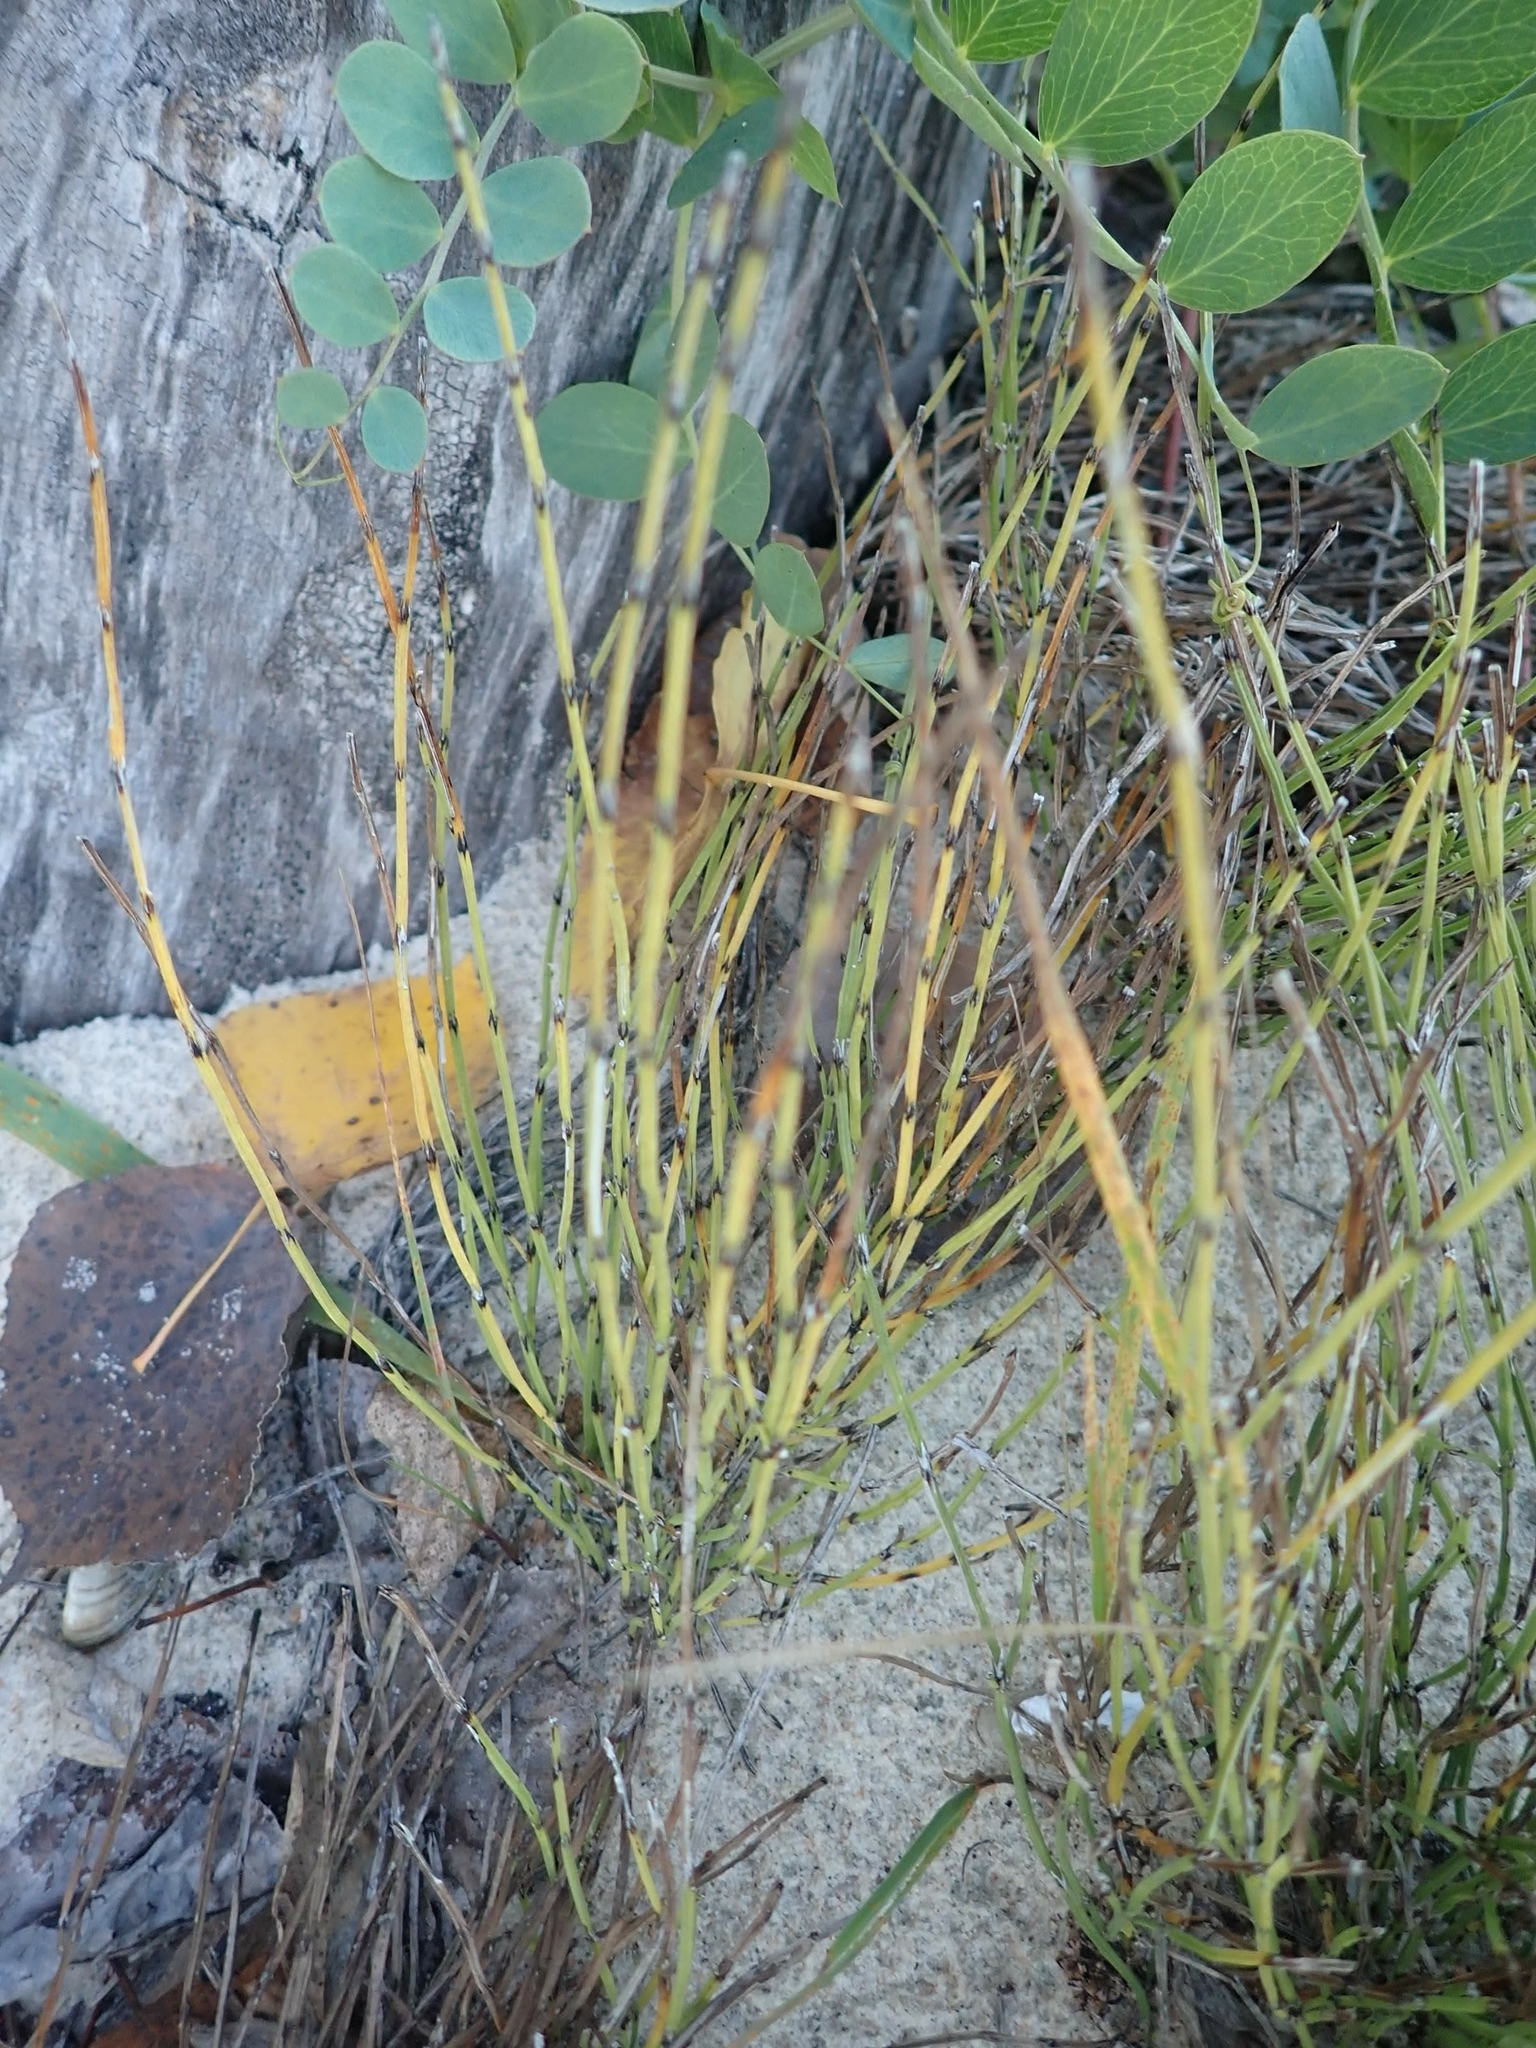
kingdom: Plantae
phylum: Tracheophyta
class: Polypodiopsida
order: Equisetales
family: Equisetaceae
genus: Equisetum
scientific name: Equisetum variegatum
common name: Variegated horsetail
